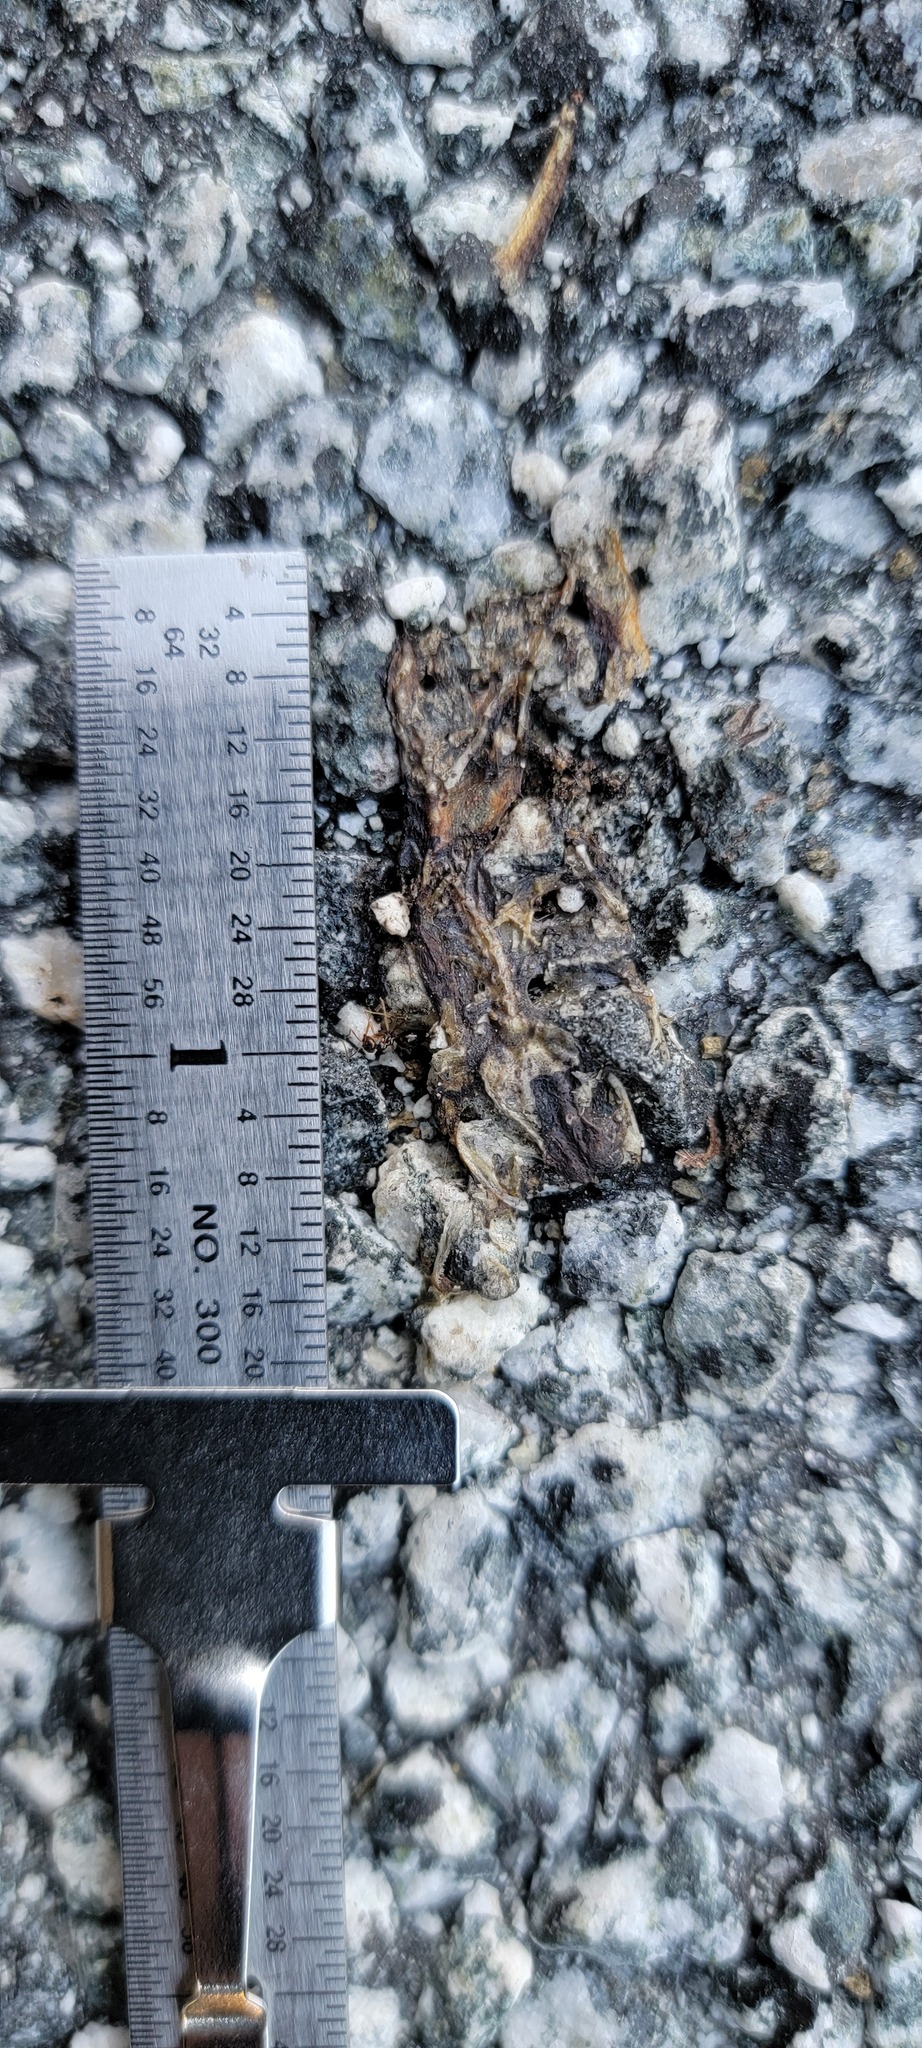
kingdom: Animalia
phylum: Chordata
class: Amphibia
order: Caudata
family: Salamandridae
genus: Taricha
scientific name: Taricha
